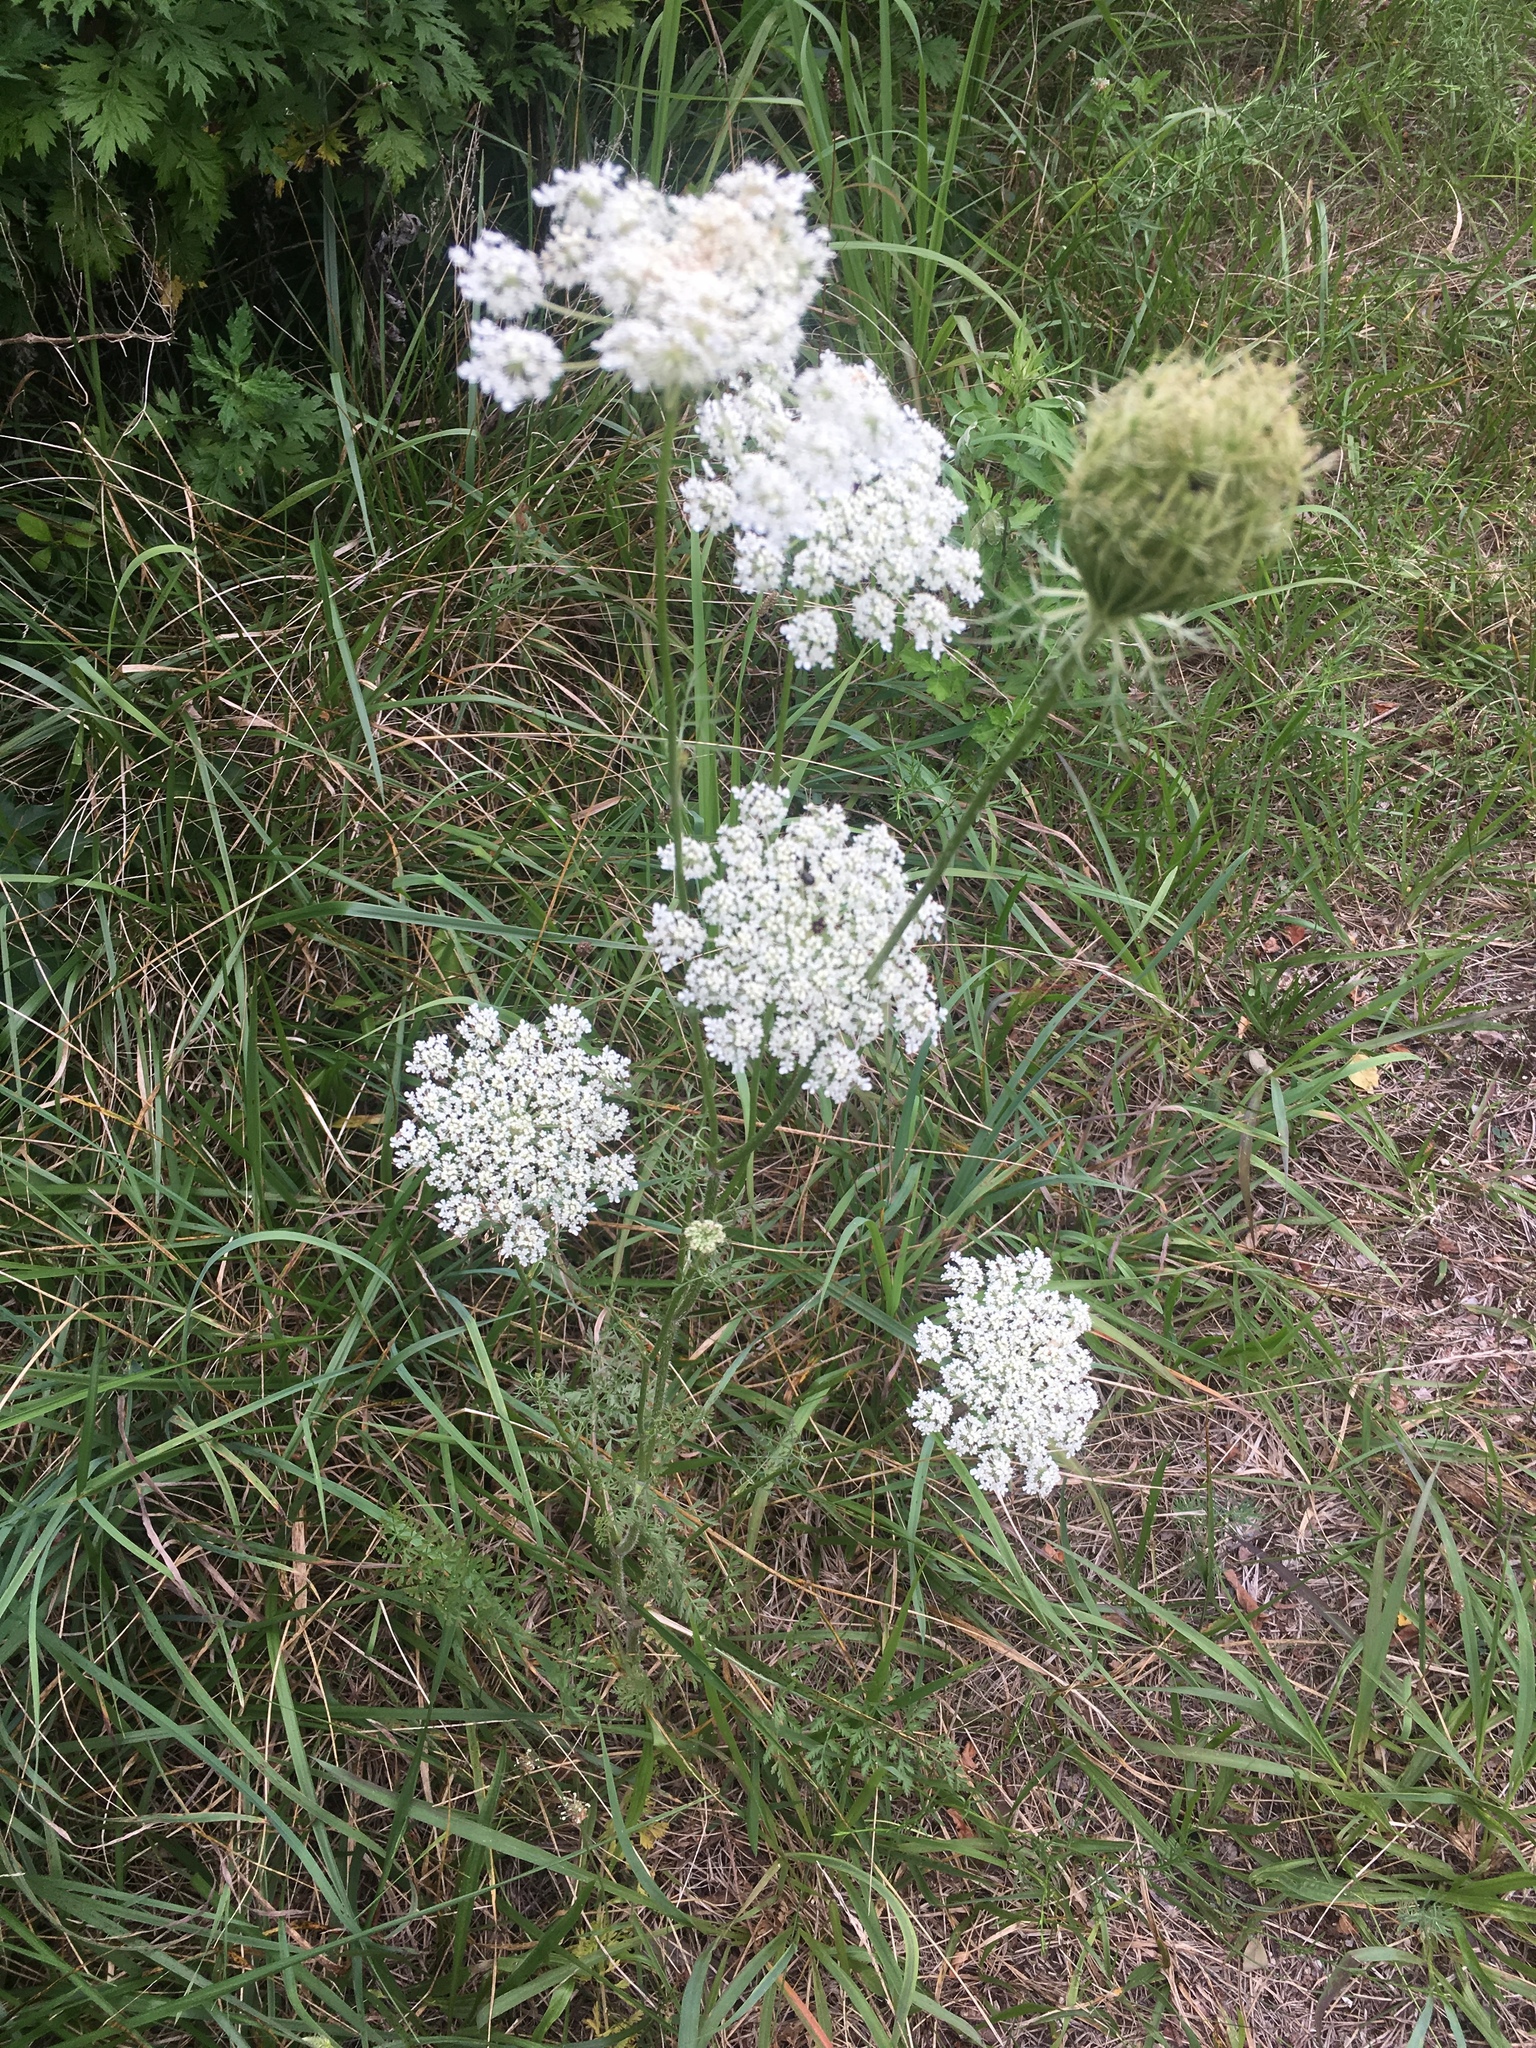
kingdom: Plantae
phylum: Tracheophyta
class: Magnoliopsida
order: Apiales
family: Apiaceae
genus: Daucus
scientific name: Daucus carota
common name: Wild carrot
